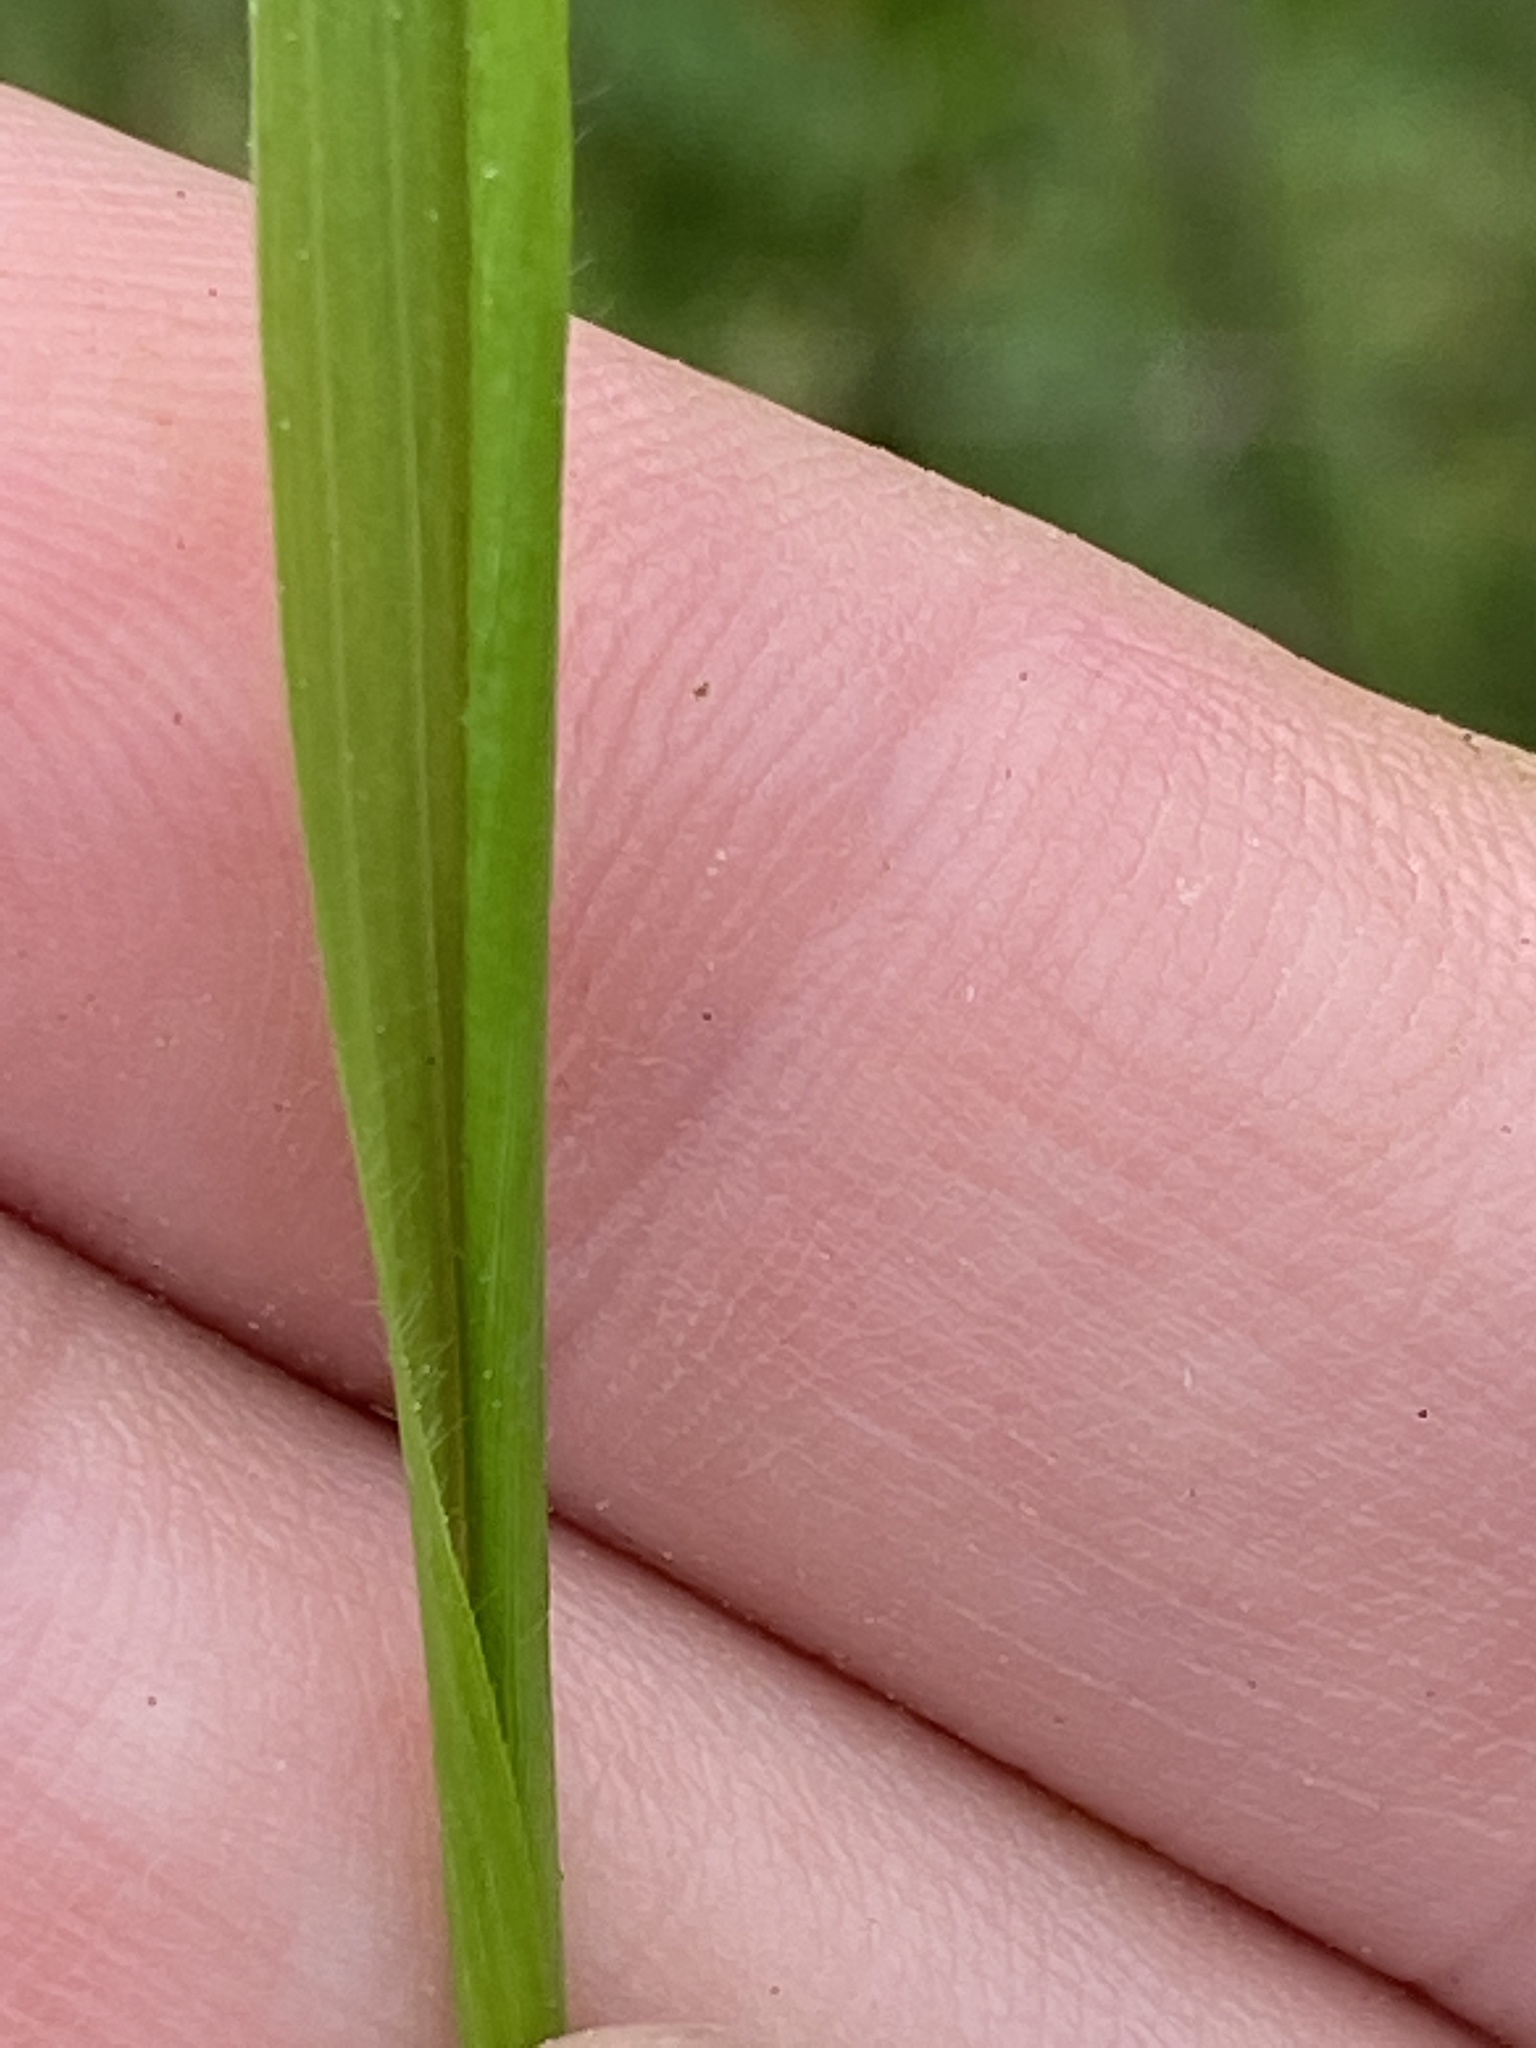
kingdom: Plantae
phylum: Tracheophyta
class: Liliopsida
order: Poales
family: Poaceae
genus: Tridens
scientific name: Tridens flavus
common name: Purpletop
